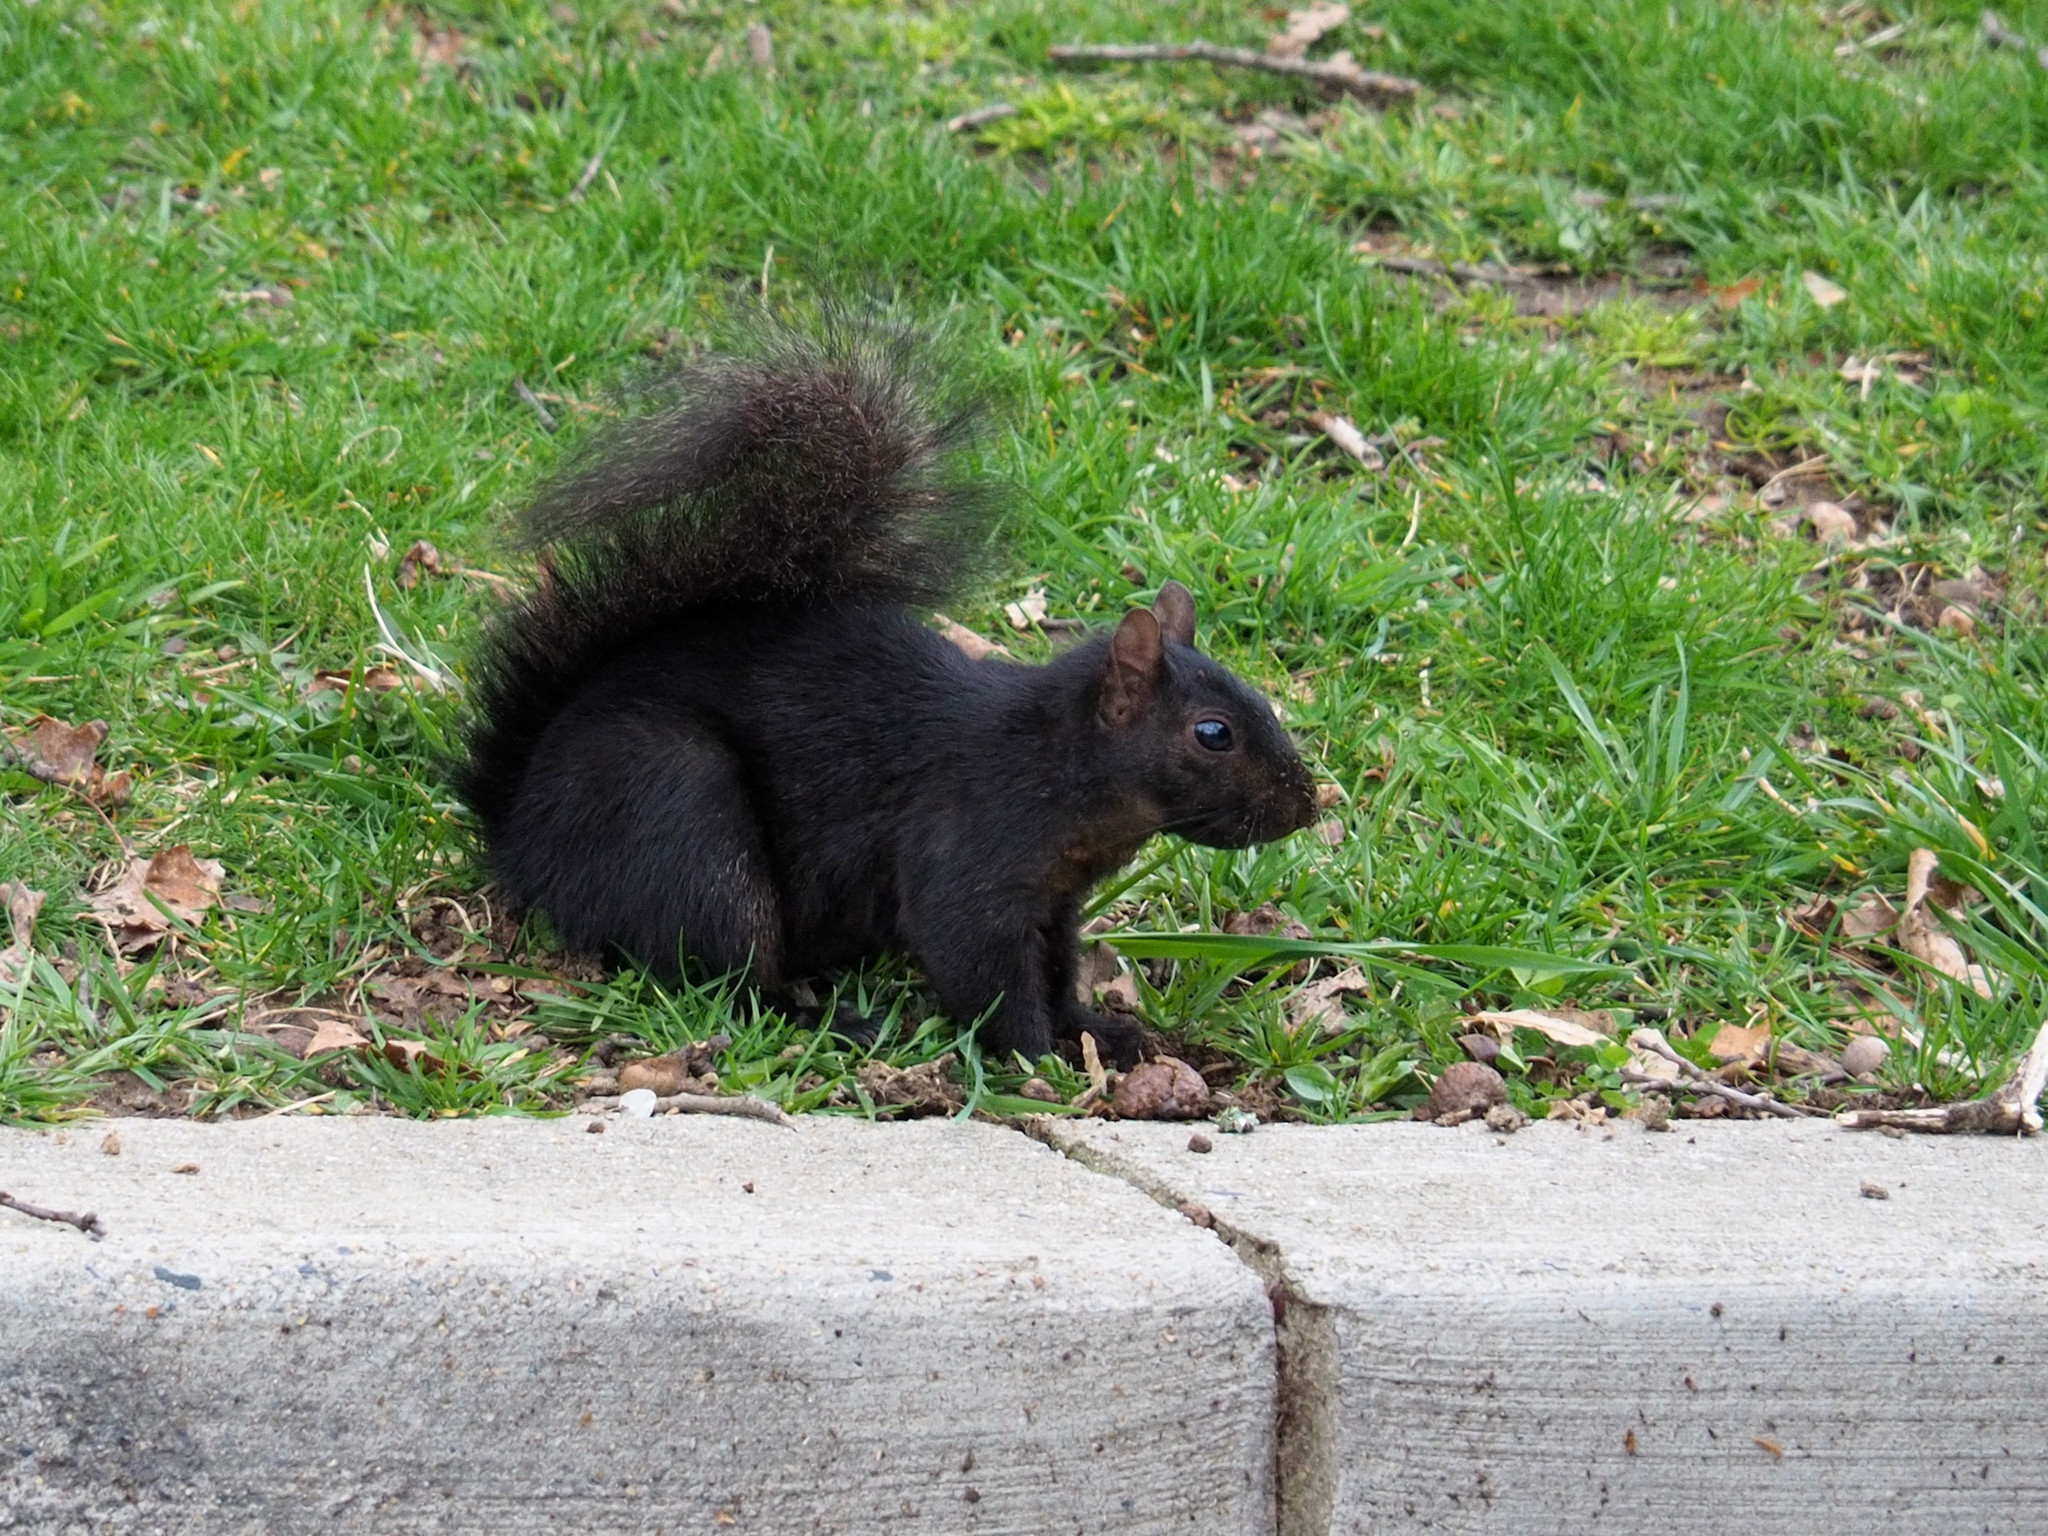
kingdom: Animalia
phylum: Chordata
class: Mammalia
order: Rodentia
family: Sciuridae
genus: Sciurus
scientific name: Sciurus carolinensis
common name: Eastern gray squirrel
